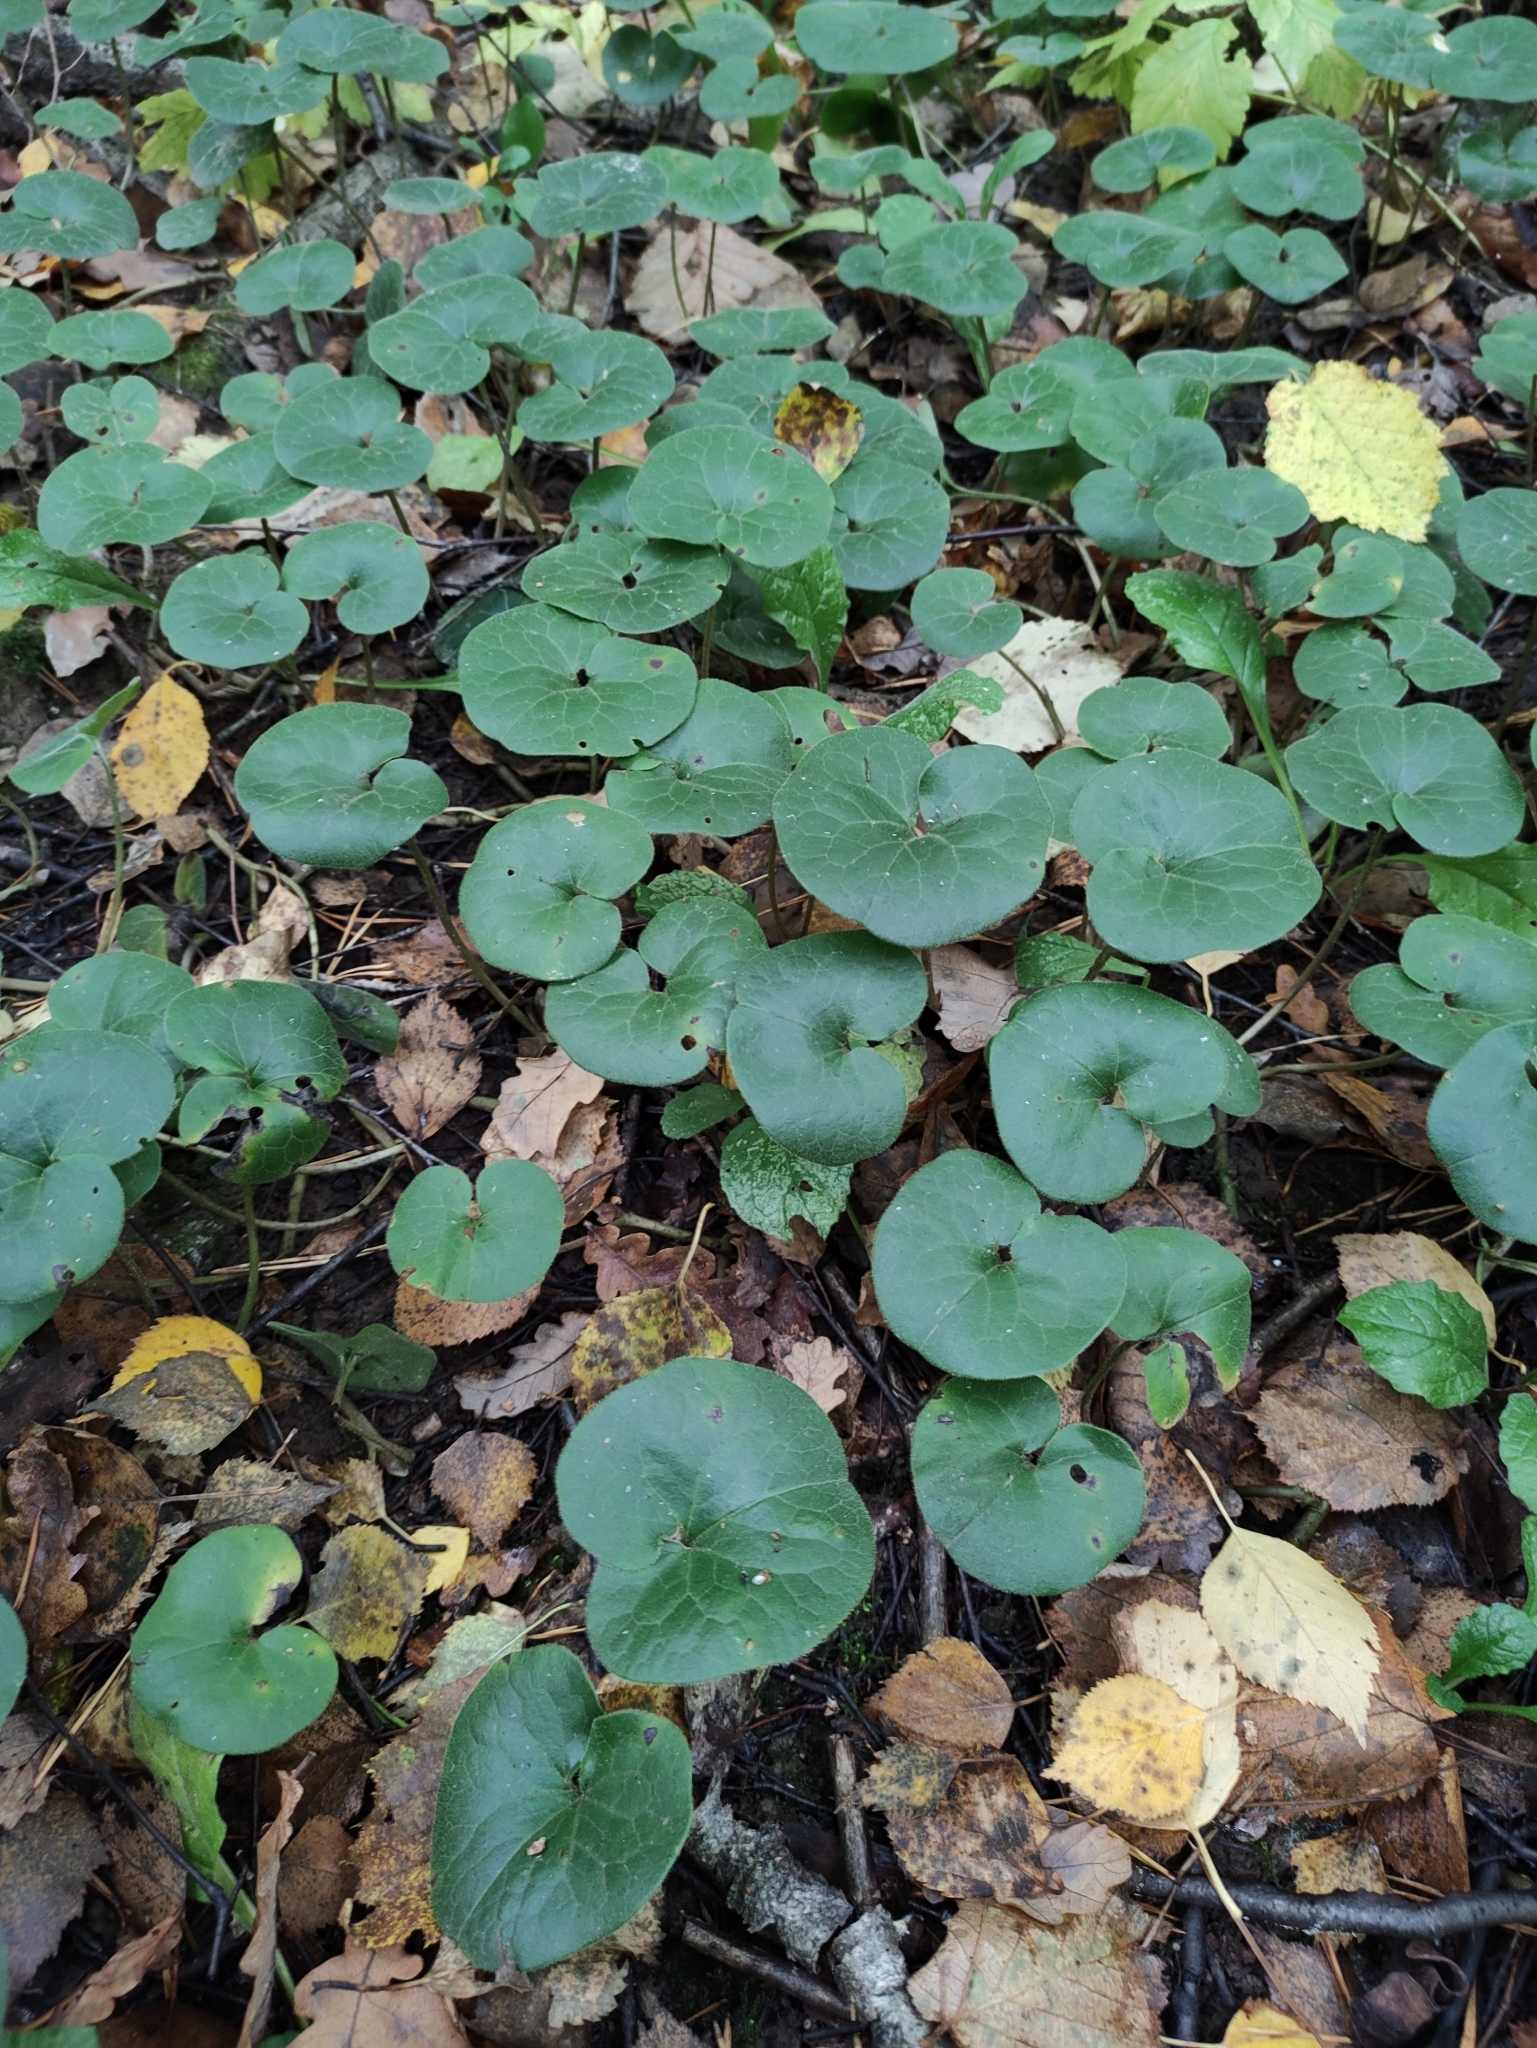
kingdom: Plantae
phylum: Tracheophyta
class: Magnoliopsida
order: Piperales
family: Aristolochiaceae
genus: Asarum
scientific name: Asarum europaeum
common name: Asarabacca
